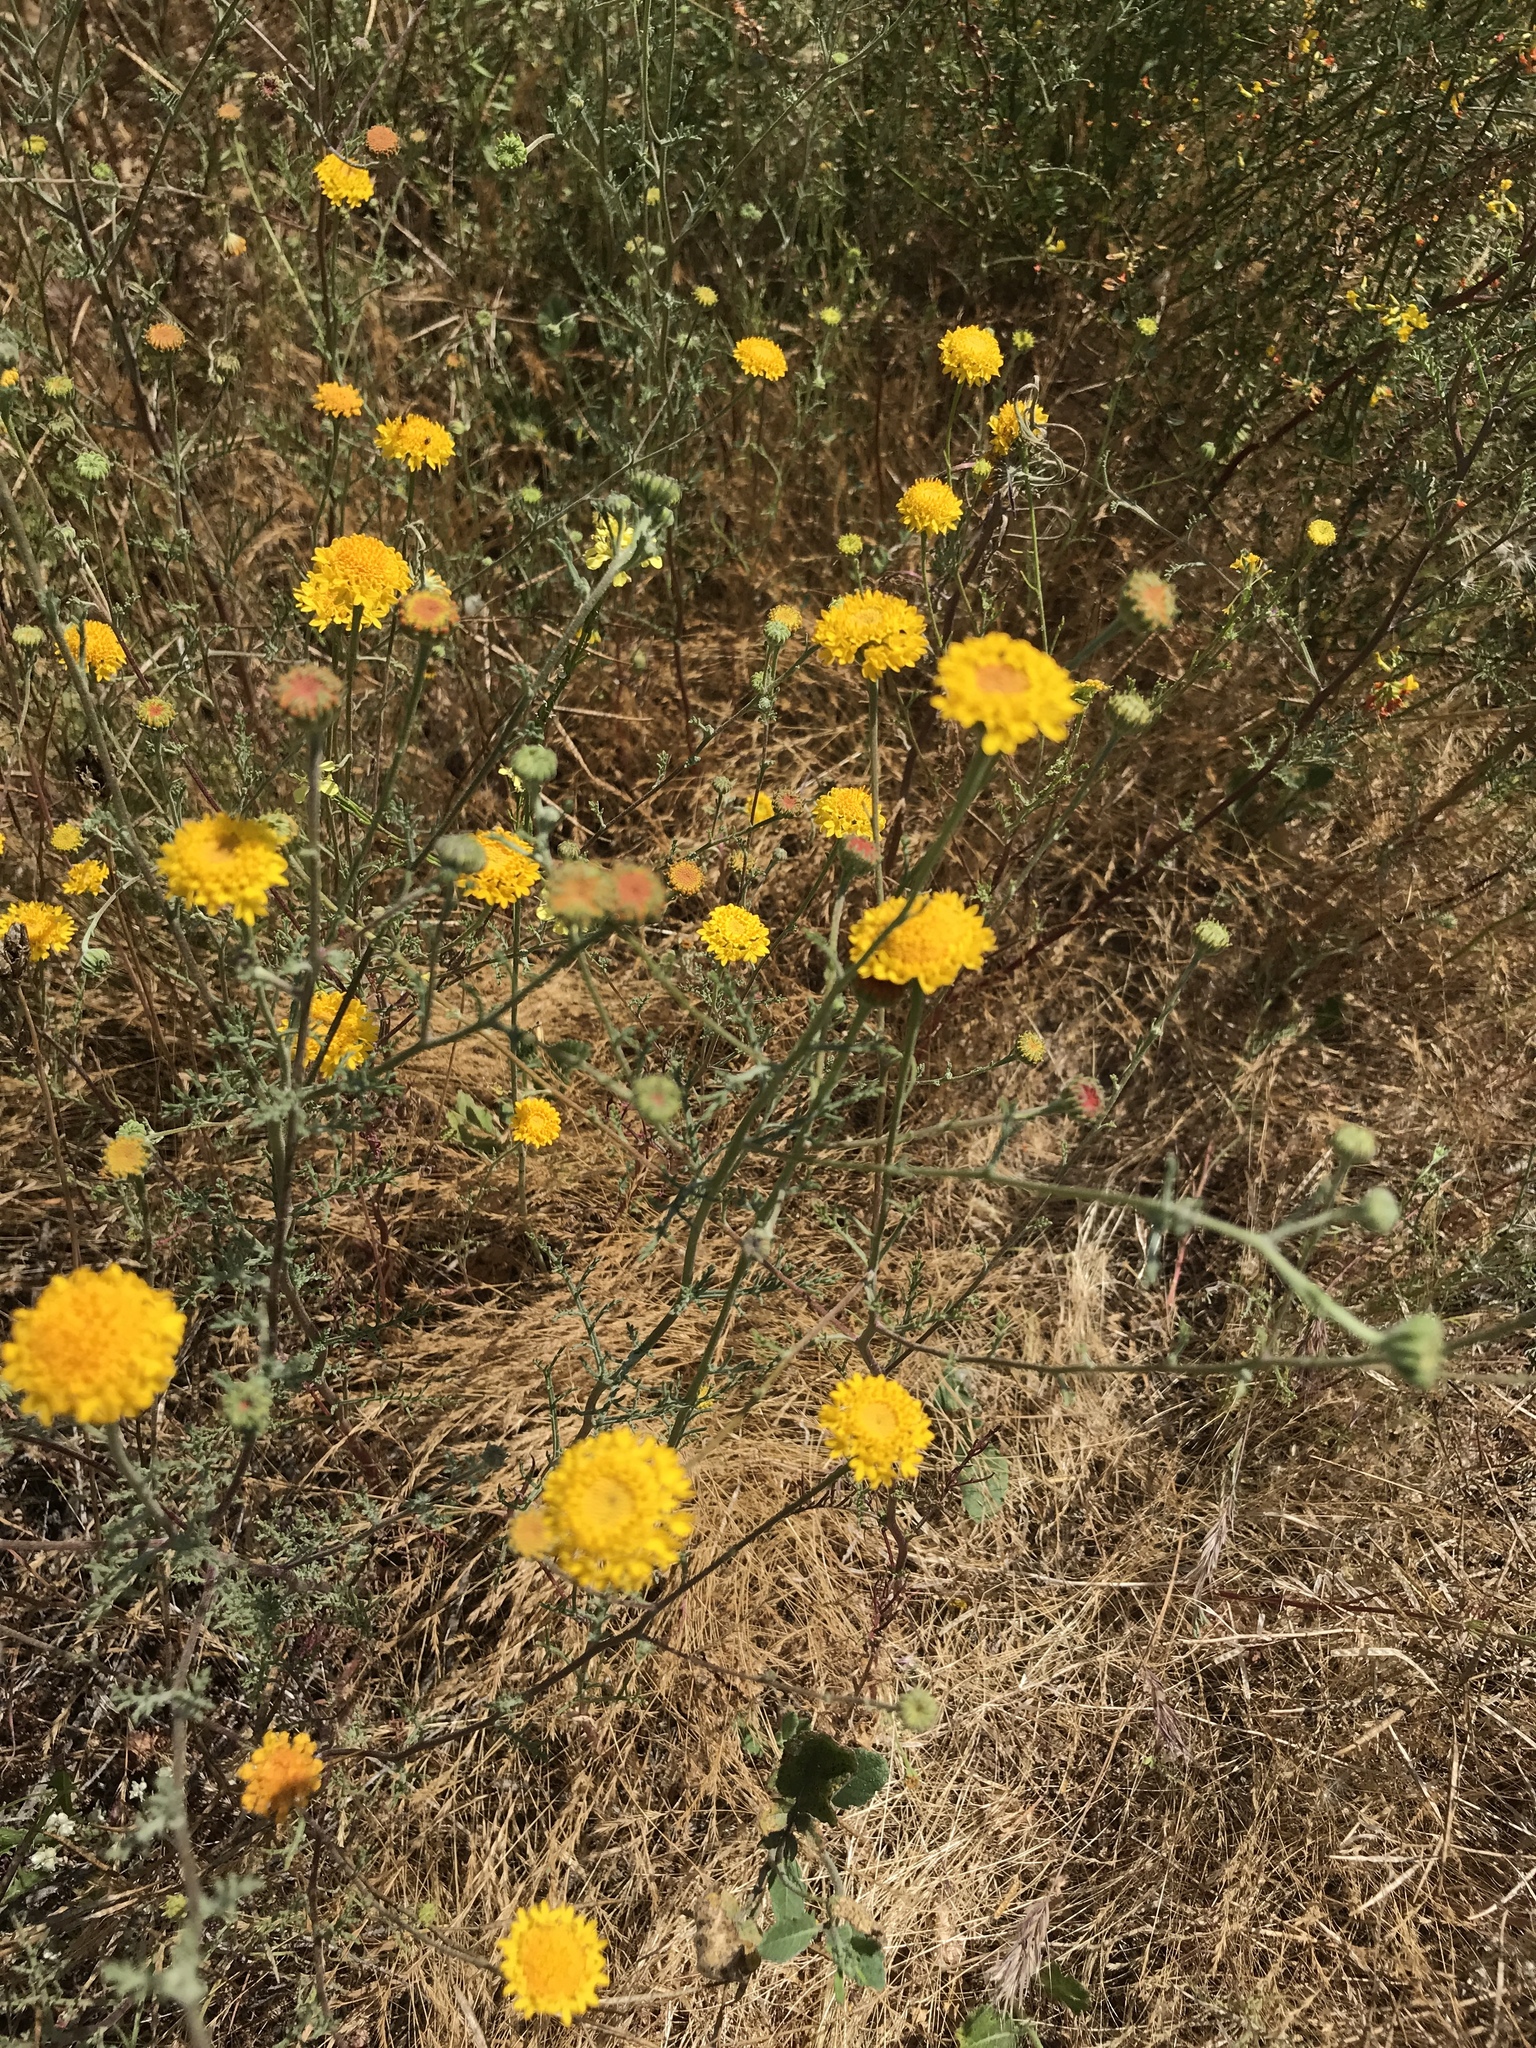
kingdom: Plantae
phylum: Tracheophyta
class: Magnoliopsida
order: Asterales
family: Asteraceae
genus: Chaenactis
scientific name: Chaenactis glabriuscula
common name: Yellow pincushion
